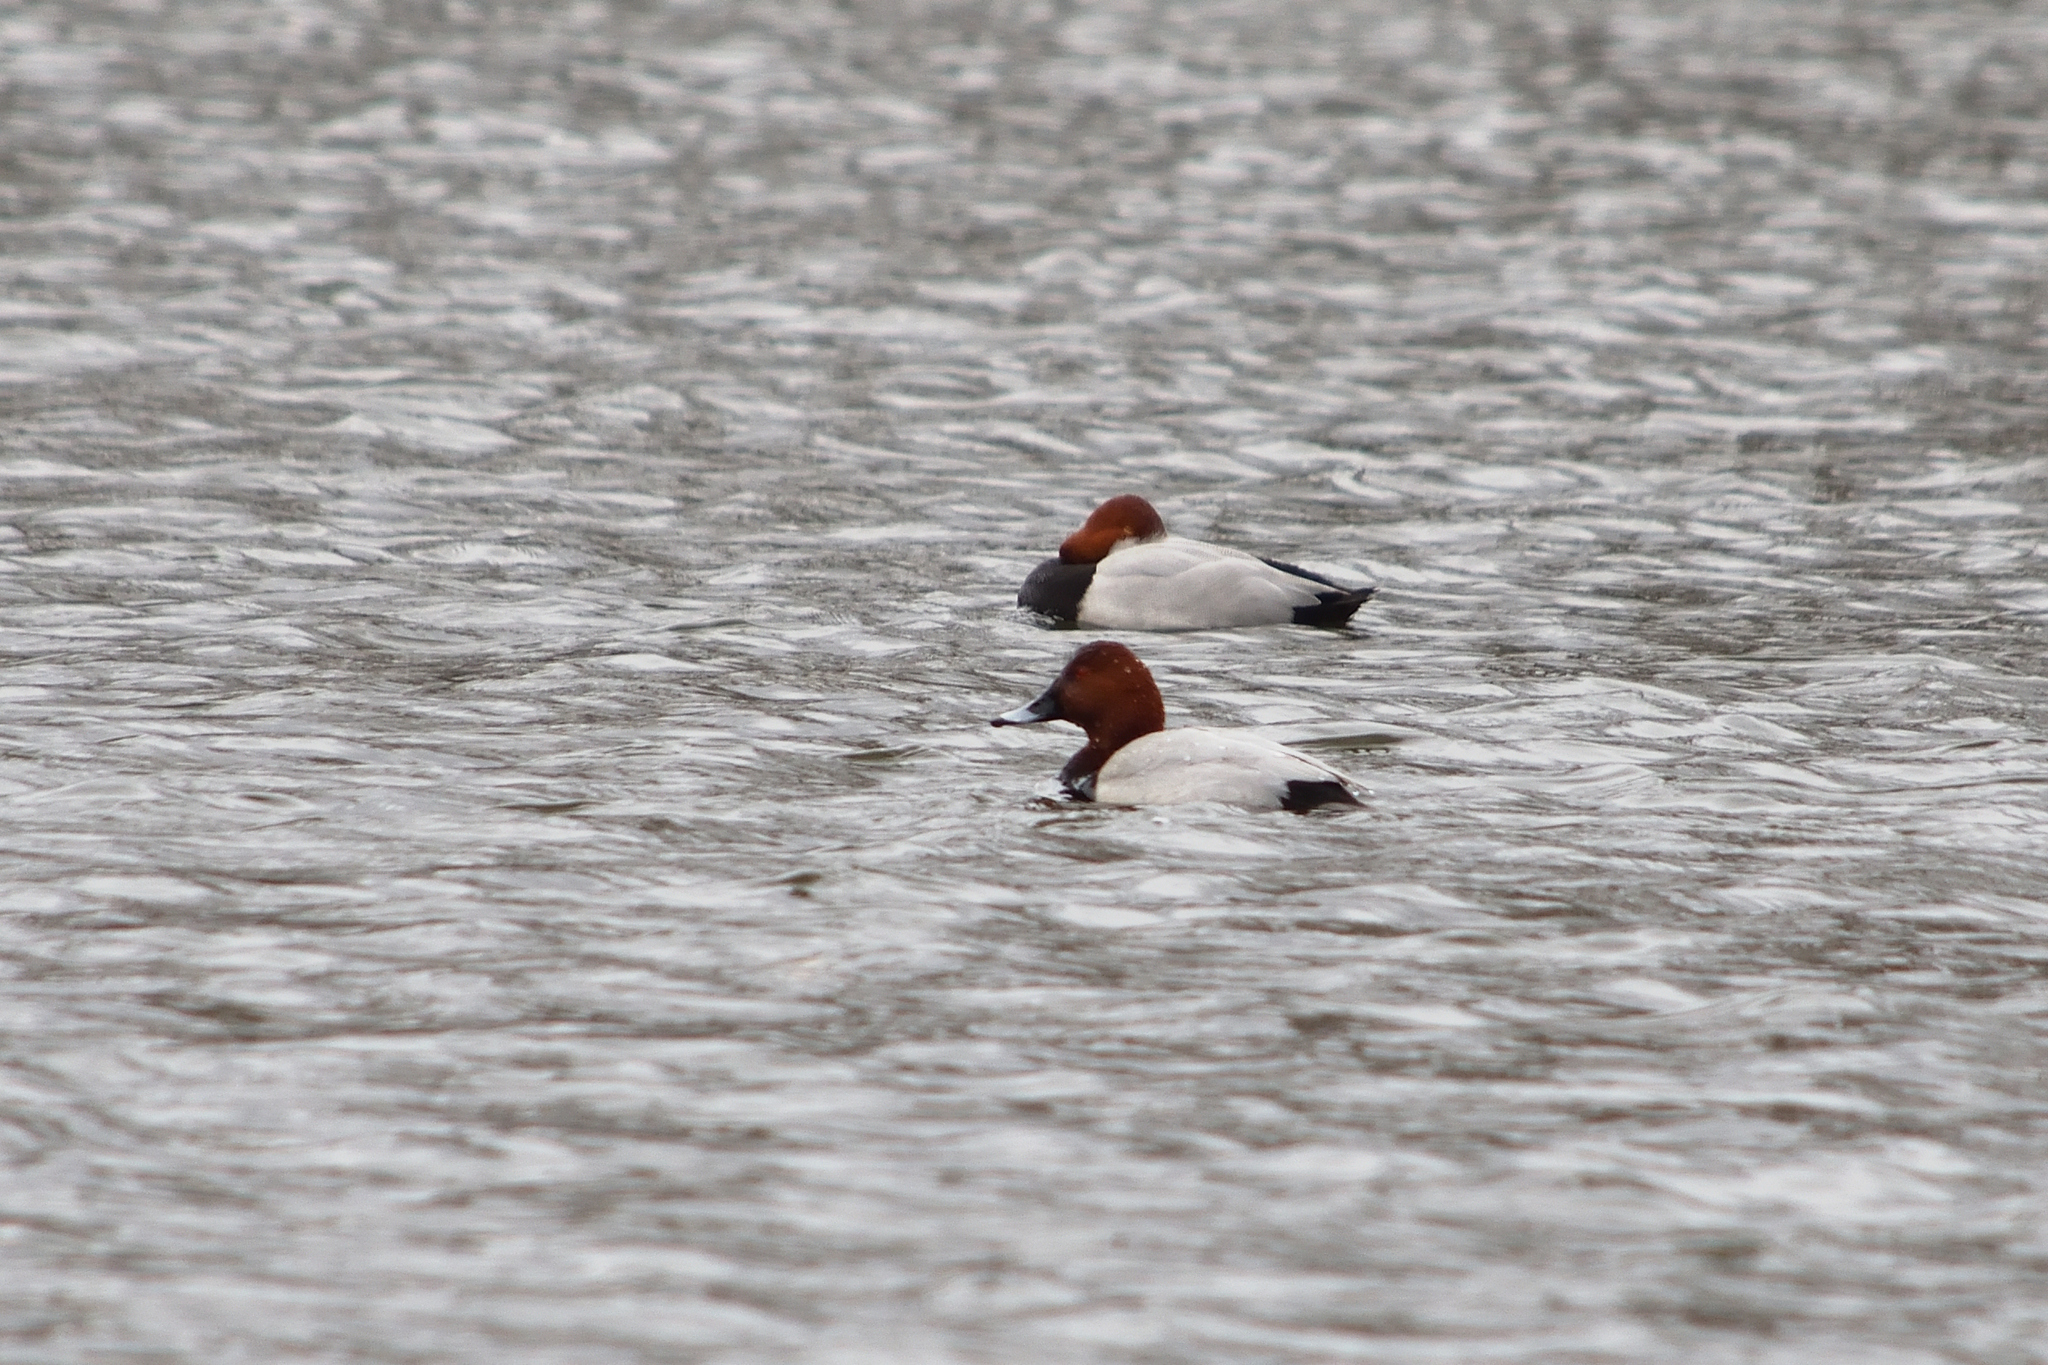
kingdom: Animalia
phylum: Chordata
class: Aves
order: Anseriformes
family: Anatidae
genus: Aythya
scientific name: Aythya ferina
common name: Common pochard
